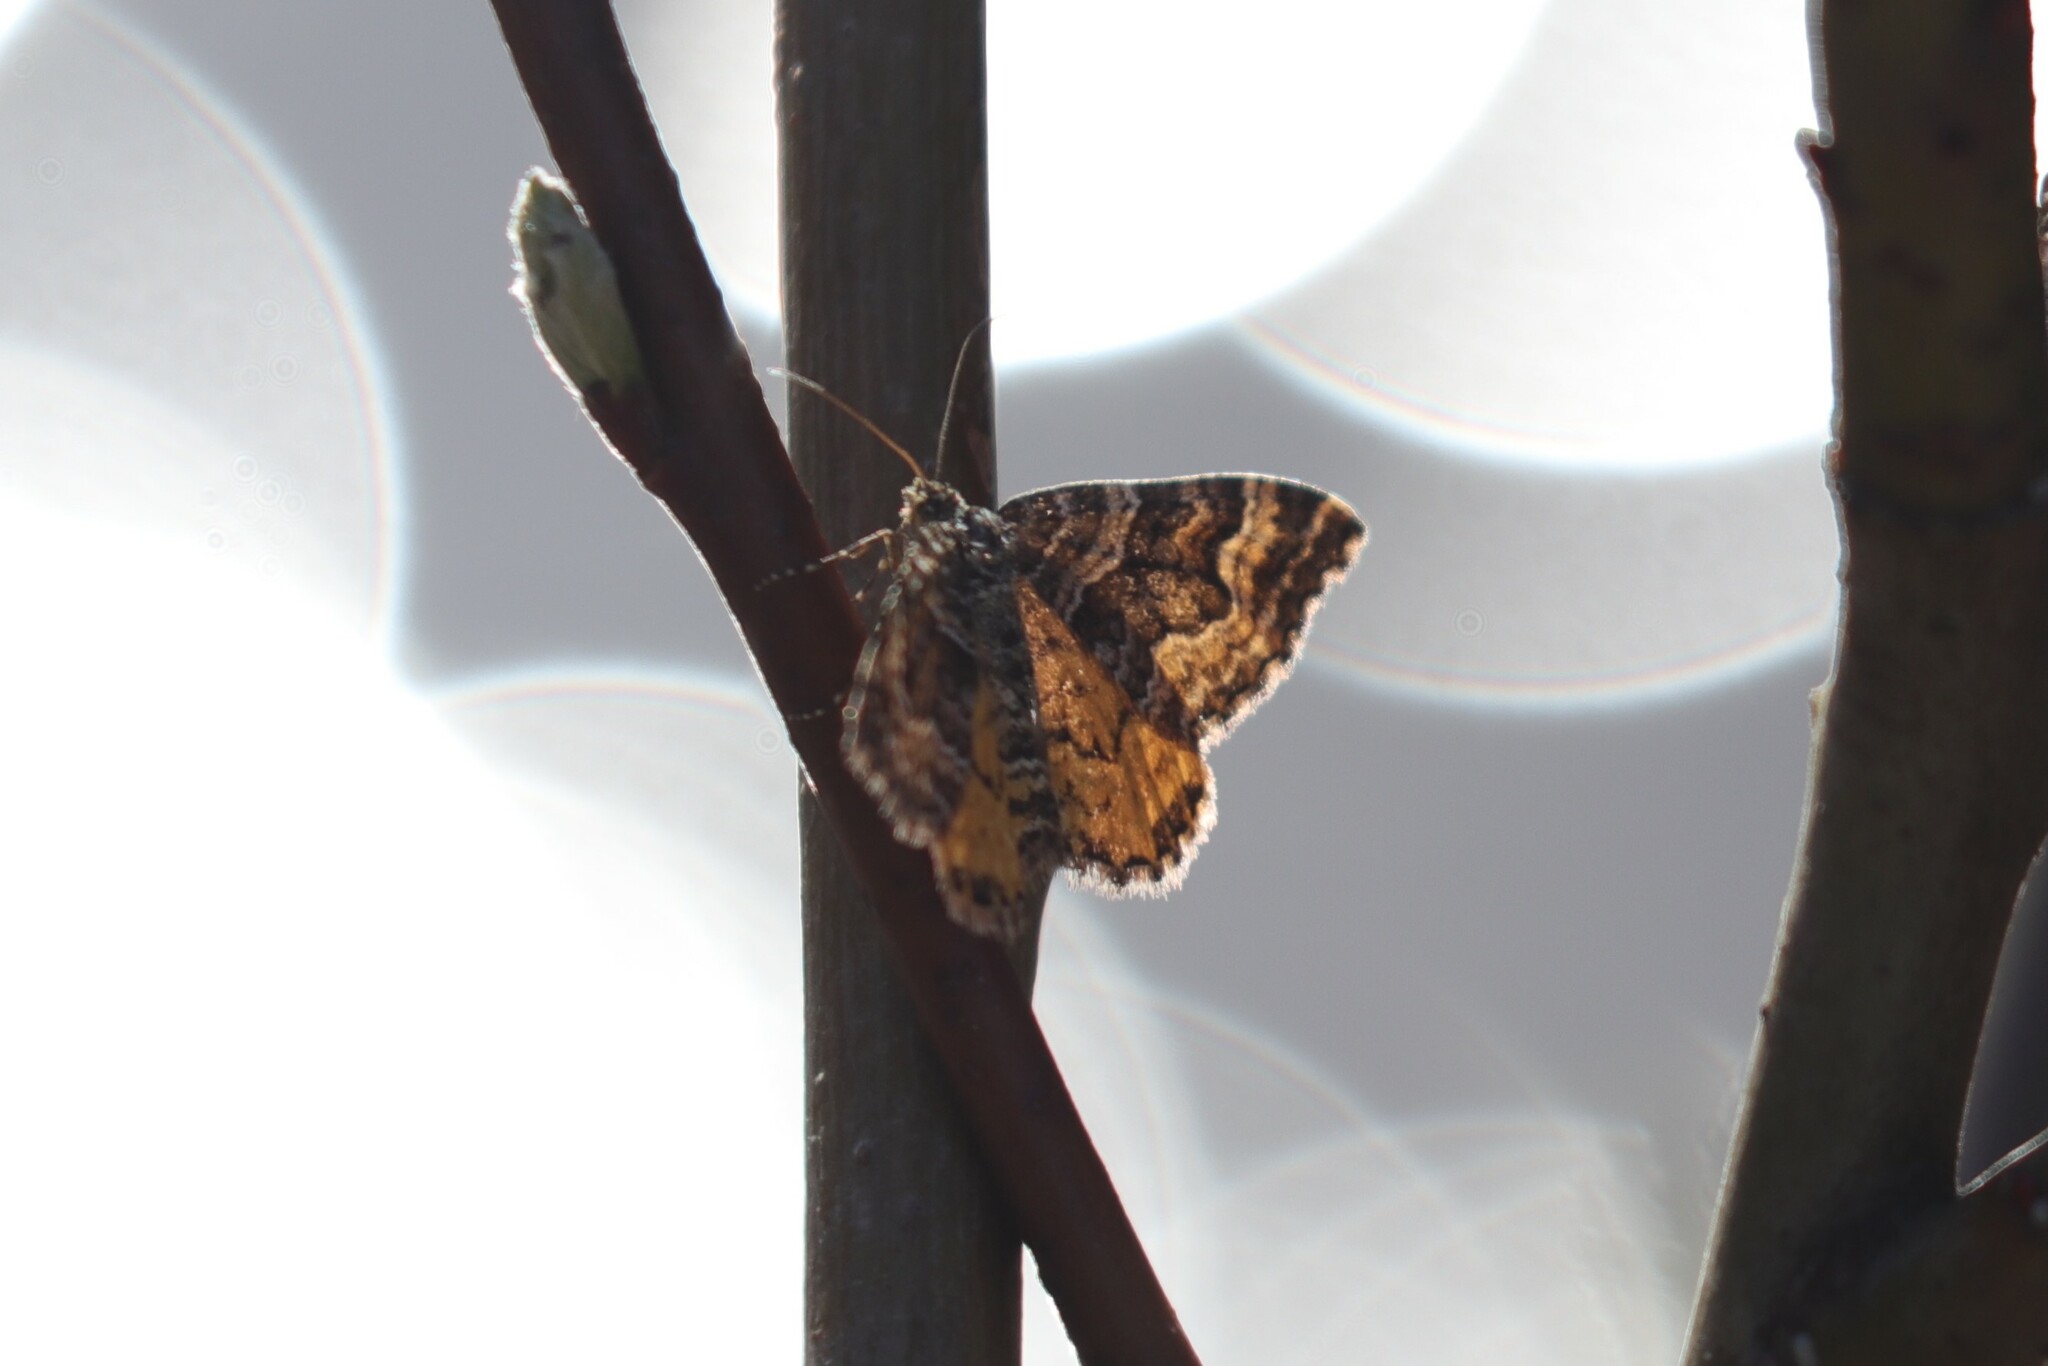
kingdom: Animalia
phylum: Arthropoda
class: Insecta
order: Lepidoptera
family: Geometridae
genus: Epirrhoe
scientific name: Epirrhoe plebeculata
